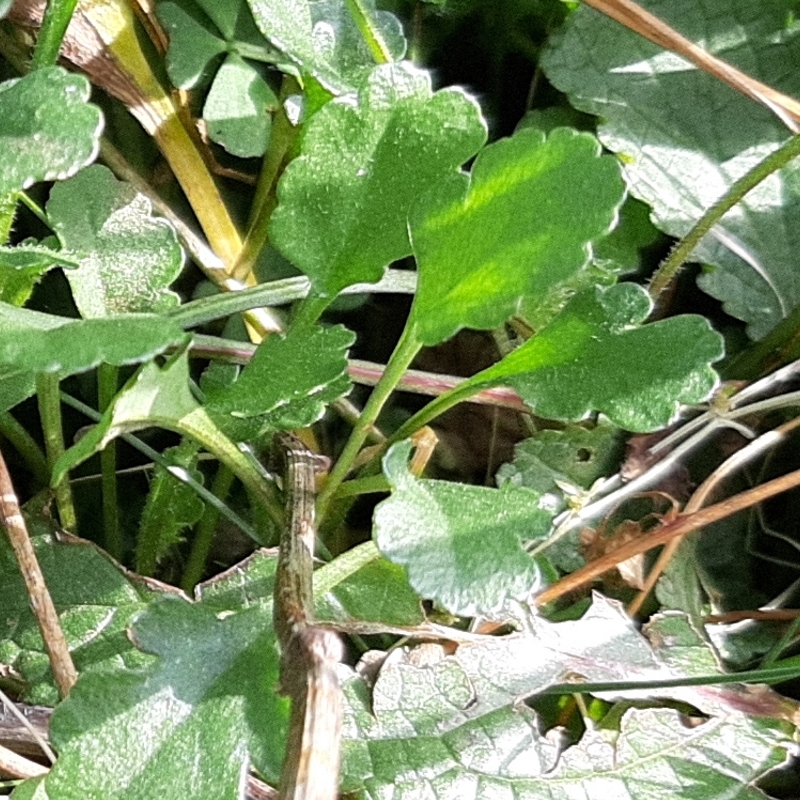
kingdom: Plantae
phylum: Tracheophyta
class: Magnoliopsida
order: Asterales
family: Asteraceae
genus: Leucanthemum
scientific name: Leucanthemum vulgare
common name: Oxeye daisy
